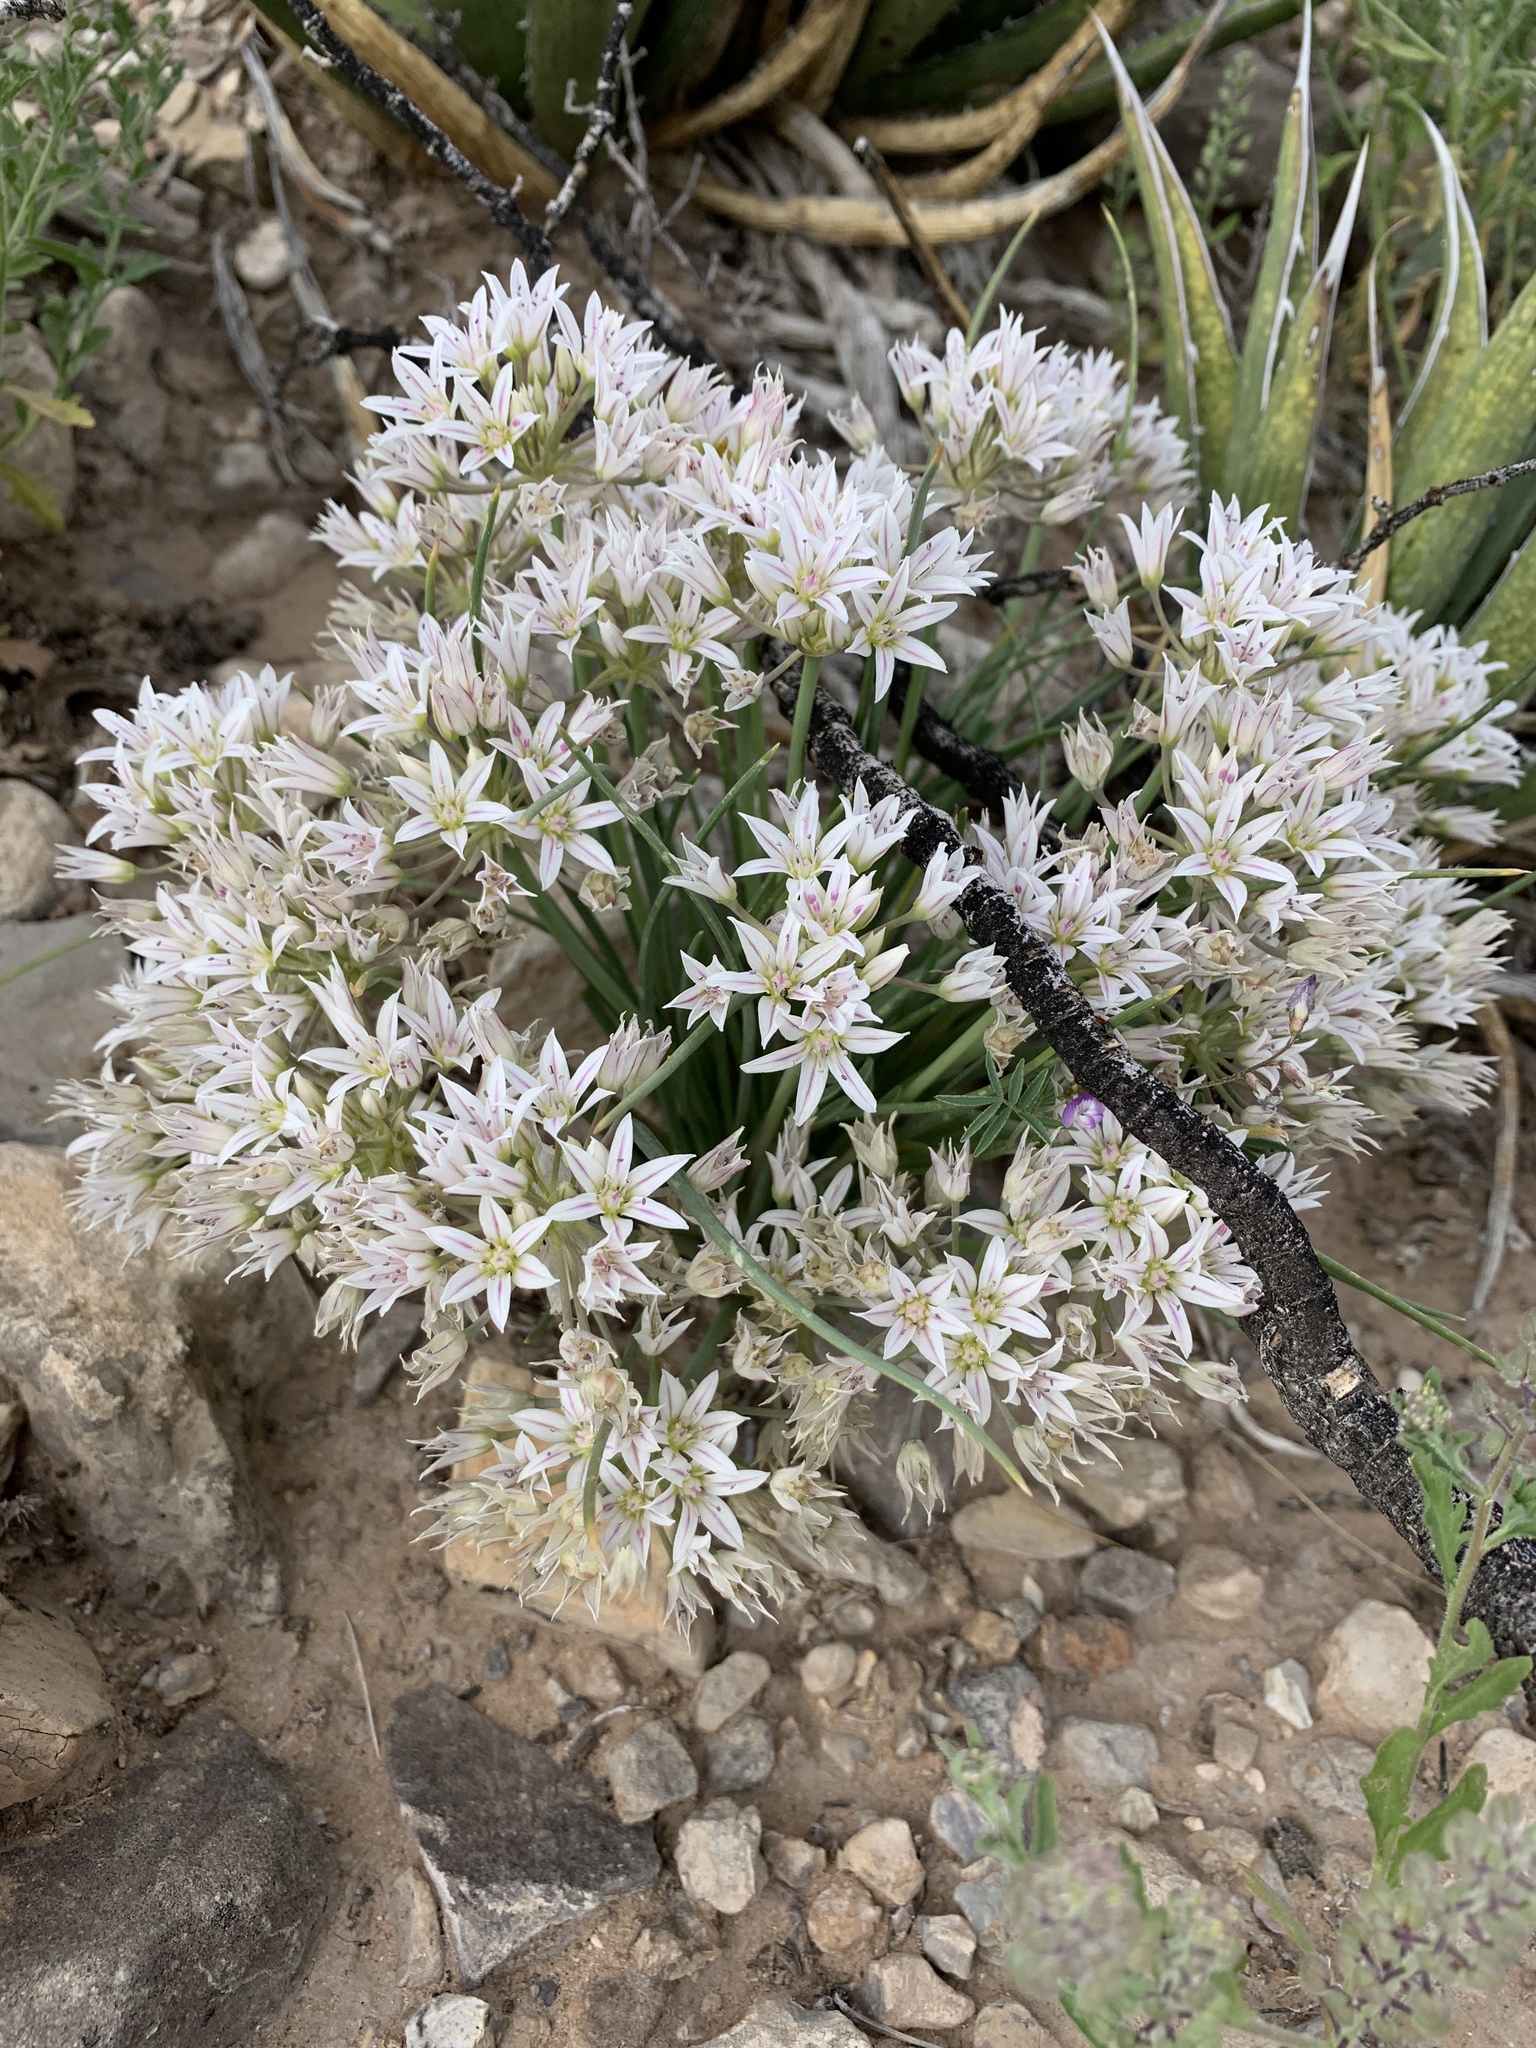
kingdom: Plantae
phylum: Tracheophyta
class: Liliopsida
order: Asparagales
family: Amaryllidaceae
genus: Allium
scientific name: Allium macropetalum
